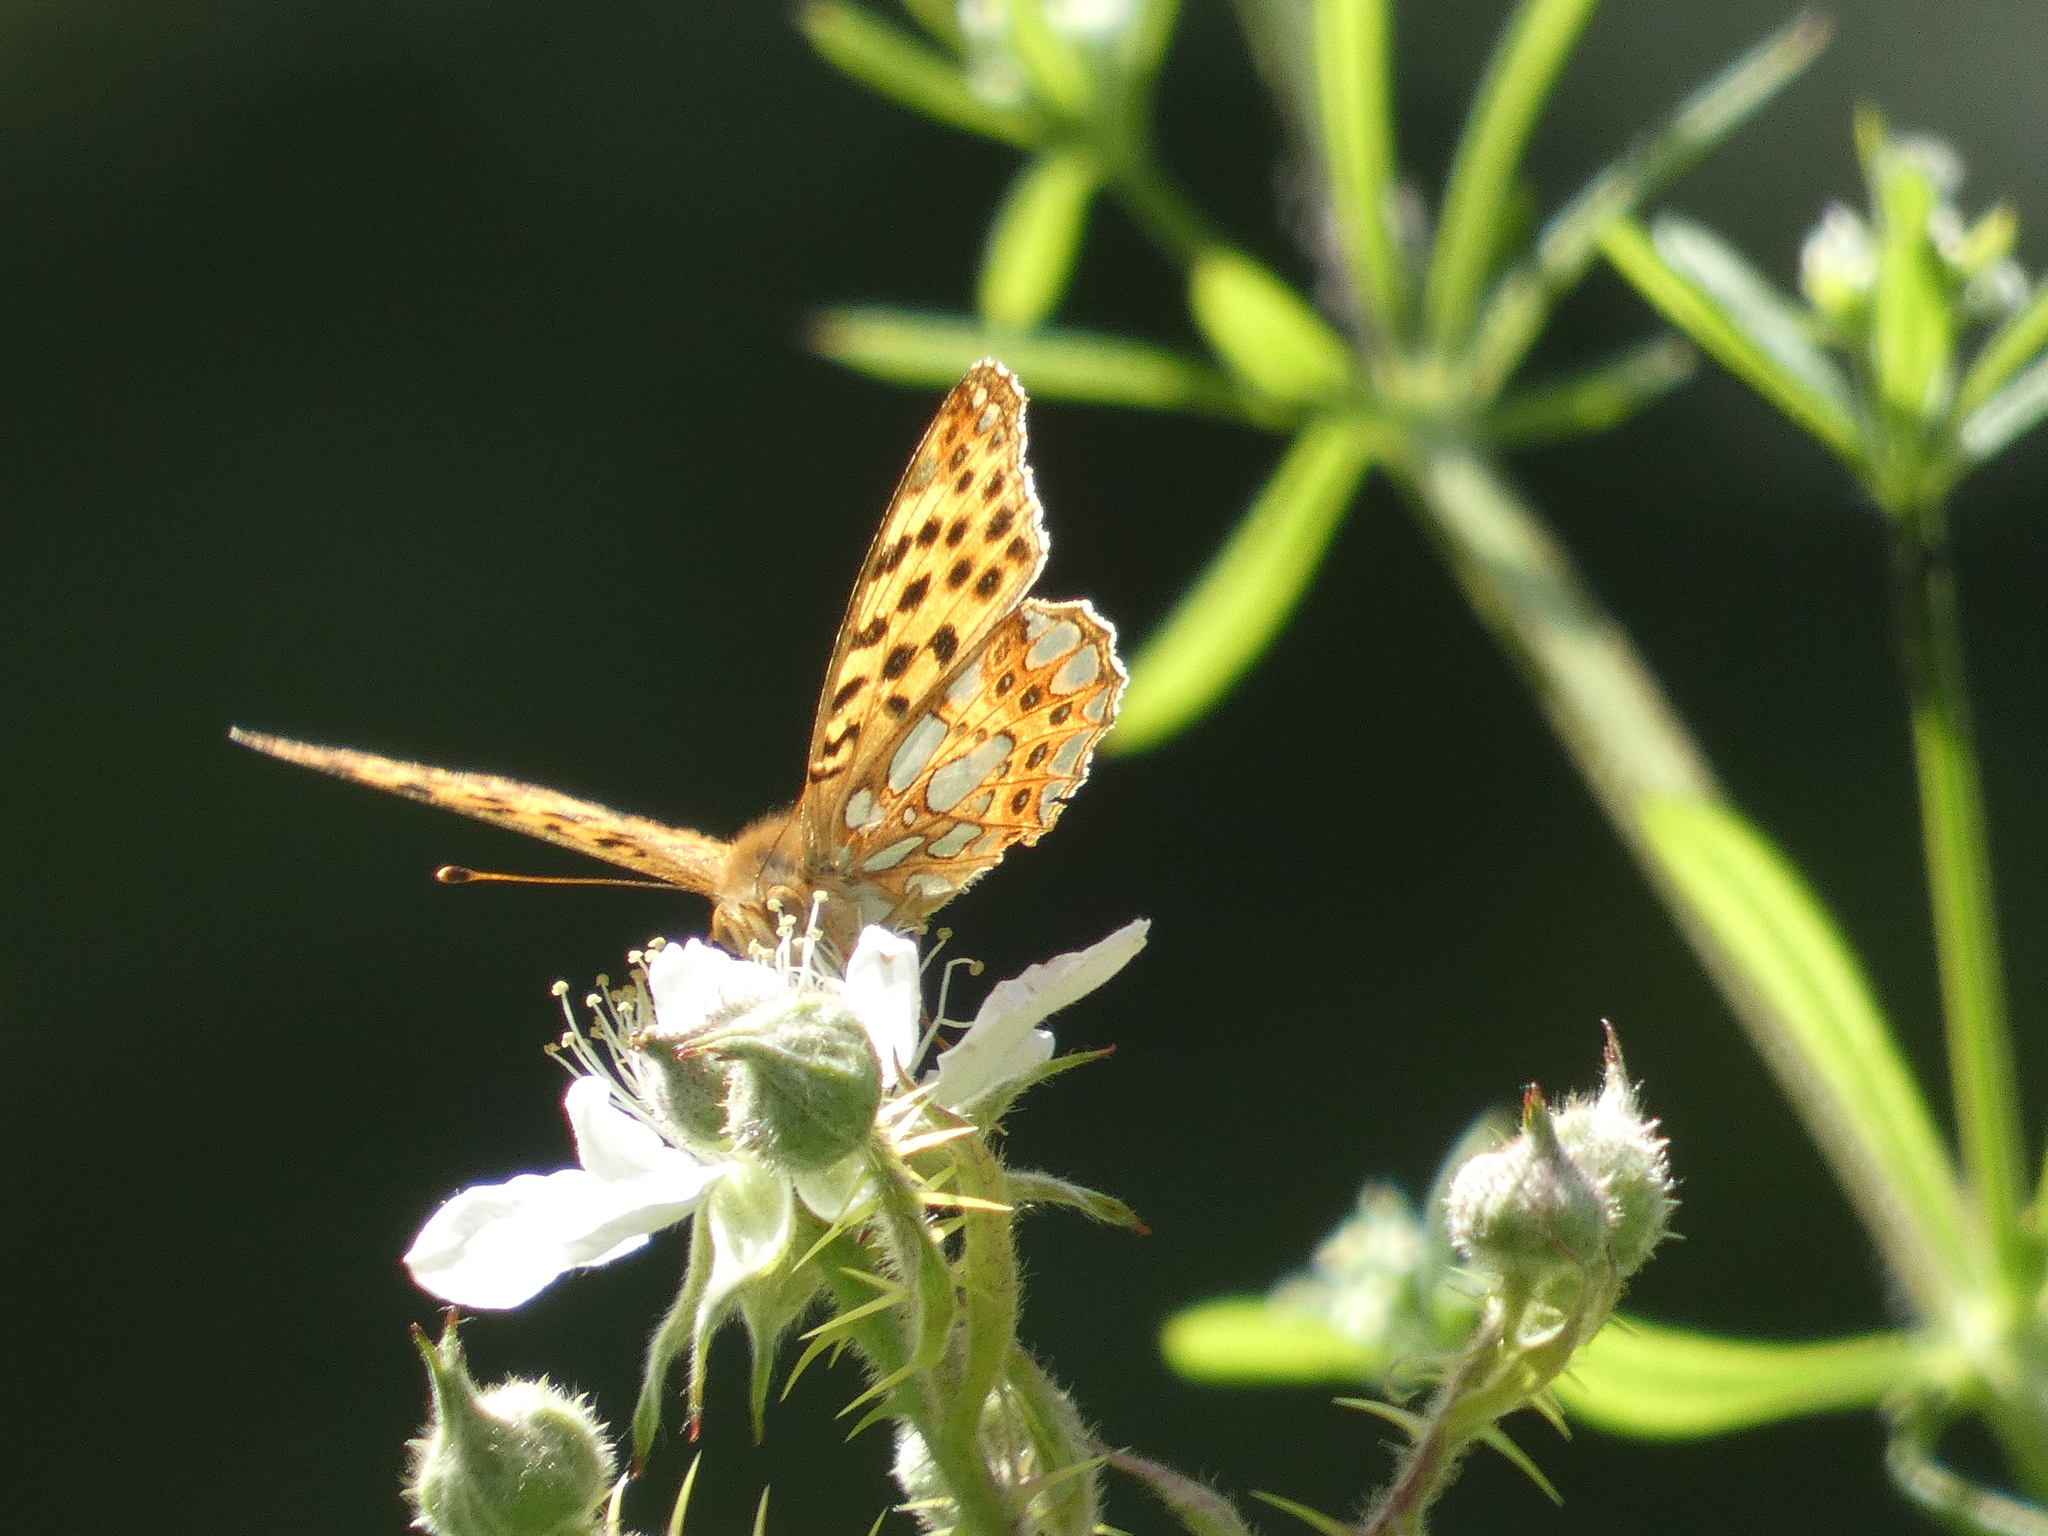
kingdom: Animalia
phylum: Arthropoda
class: Insecta
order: Lepidoptera
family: Nymphalidae
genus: Issoria
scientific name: Issoria lathonia
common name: Queen of spain fritillary
